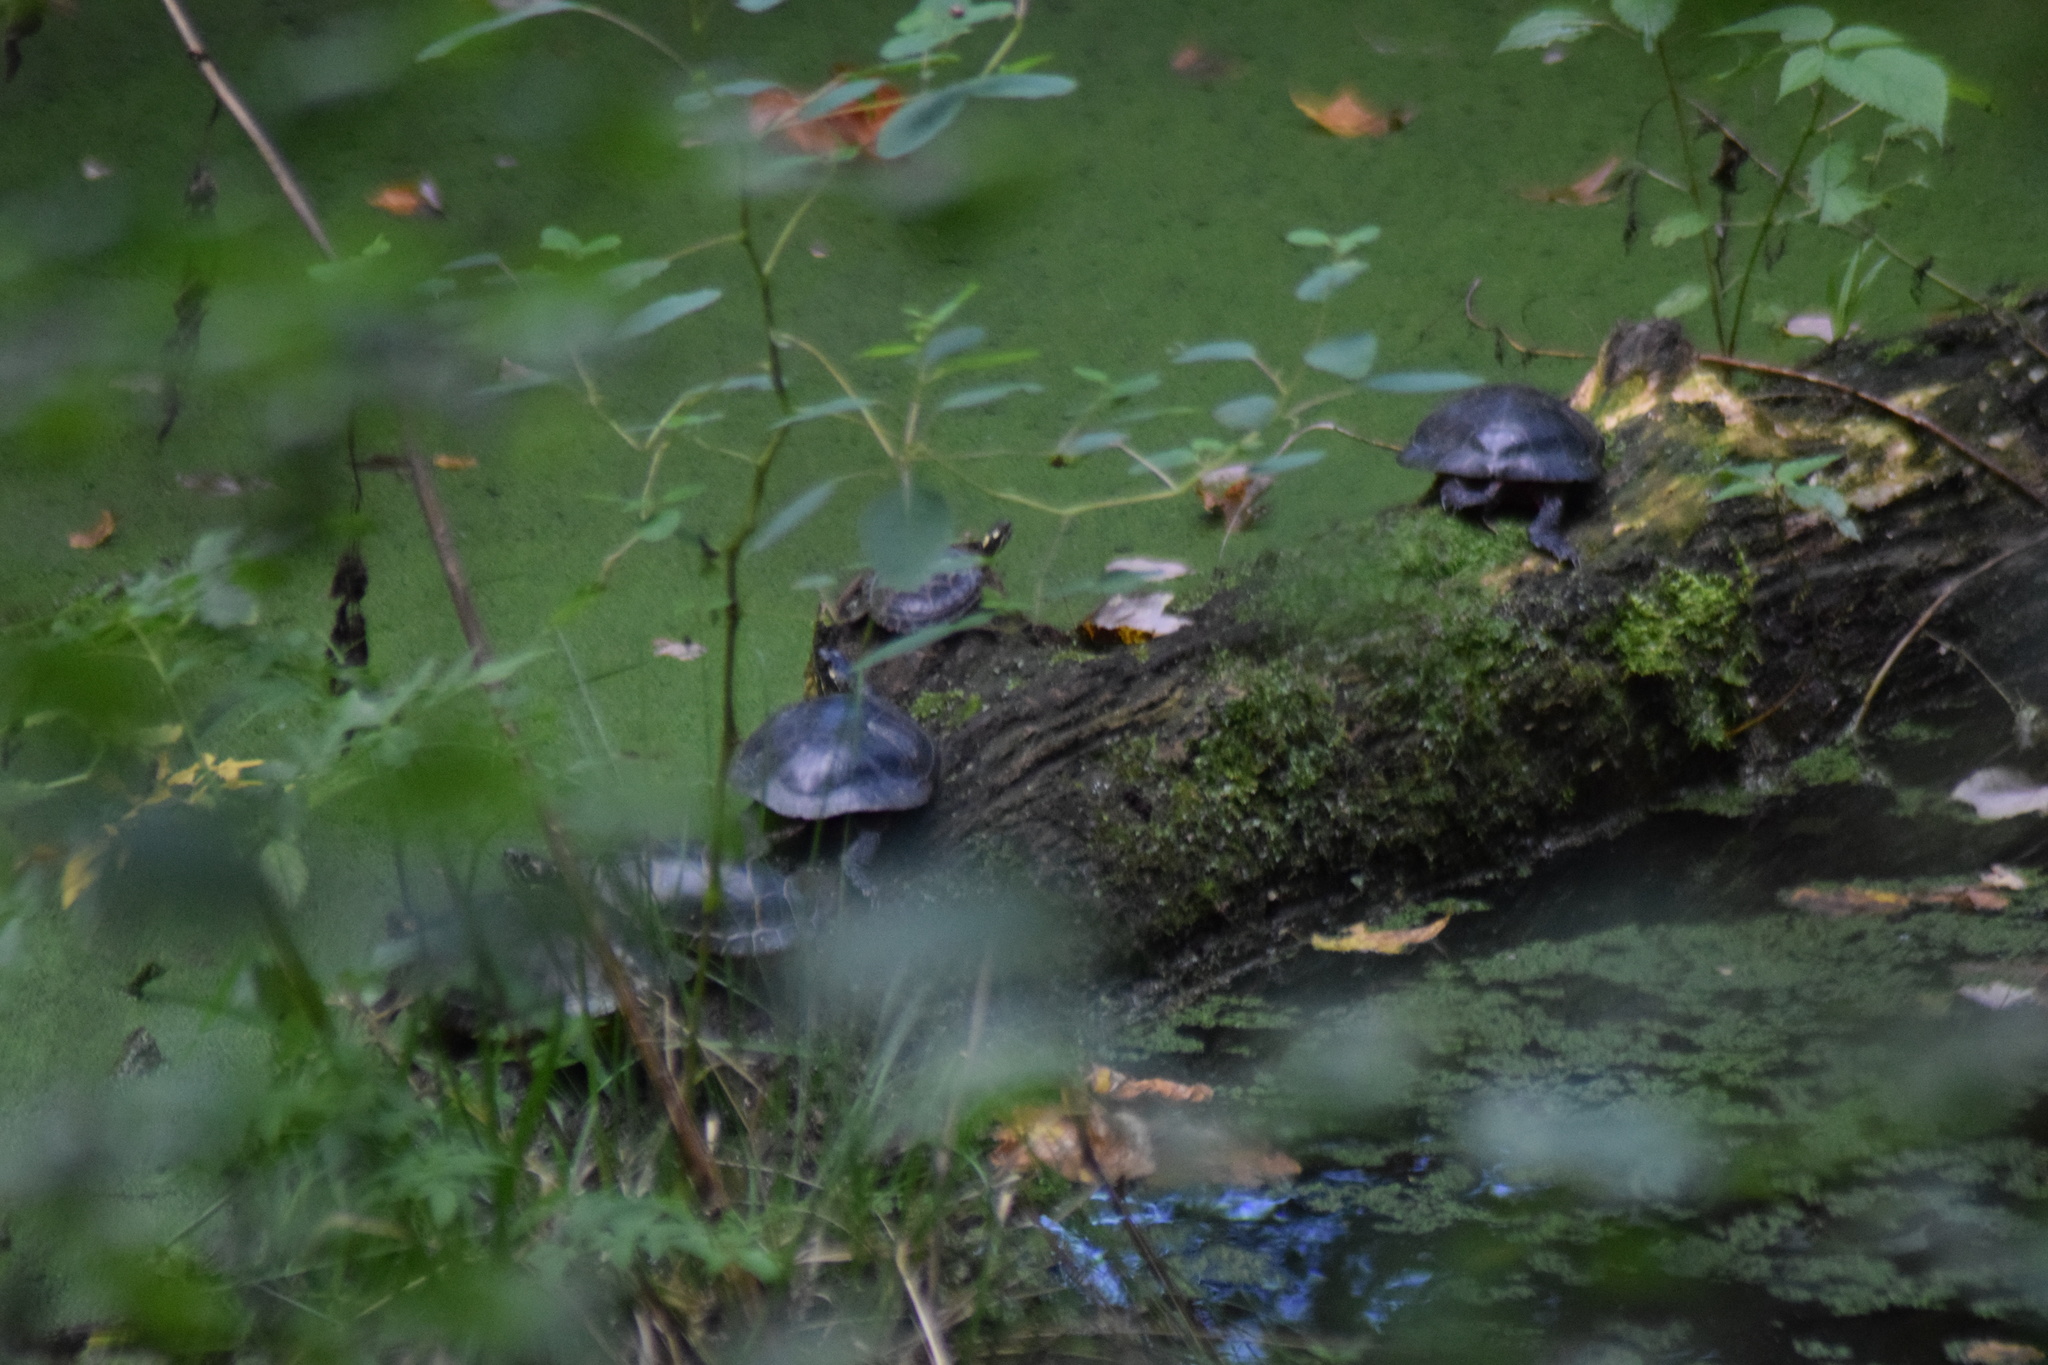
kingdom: Animalia
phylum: Chordata
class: Testudines
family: Emydidae
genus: Chrysemys
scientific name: Chrysemys picta
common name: Painted turtle
